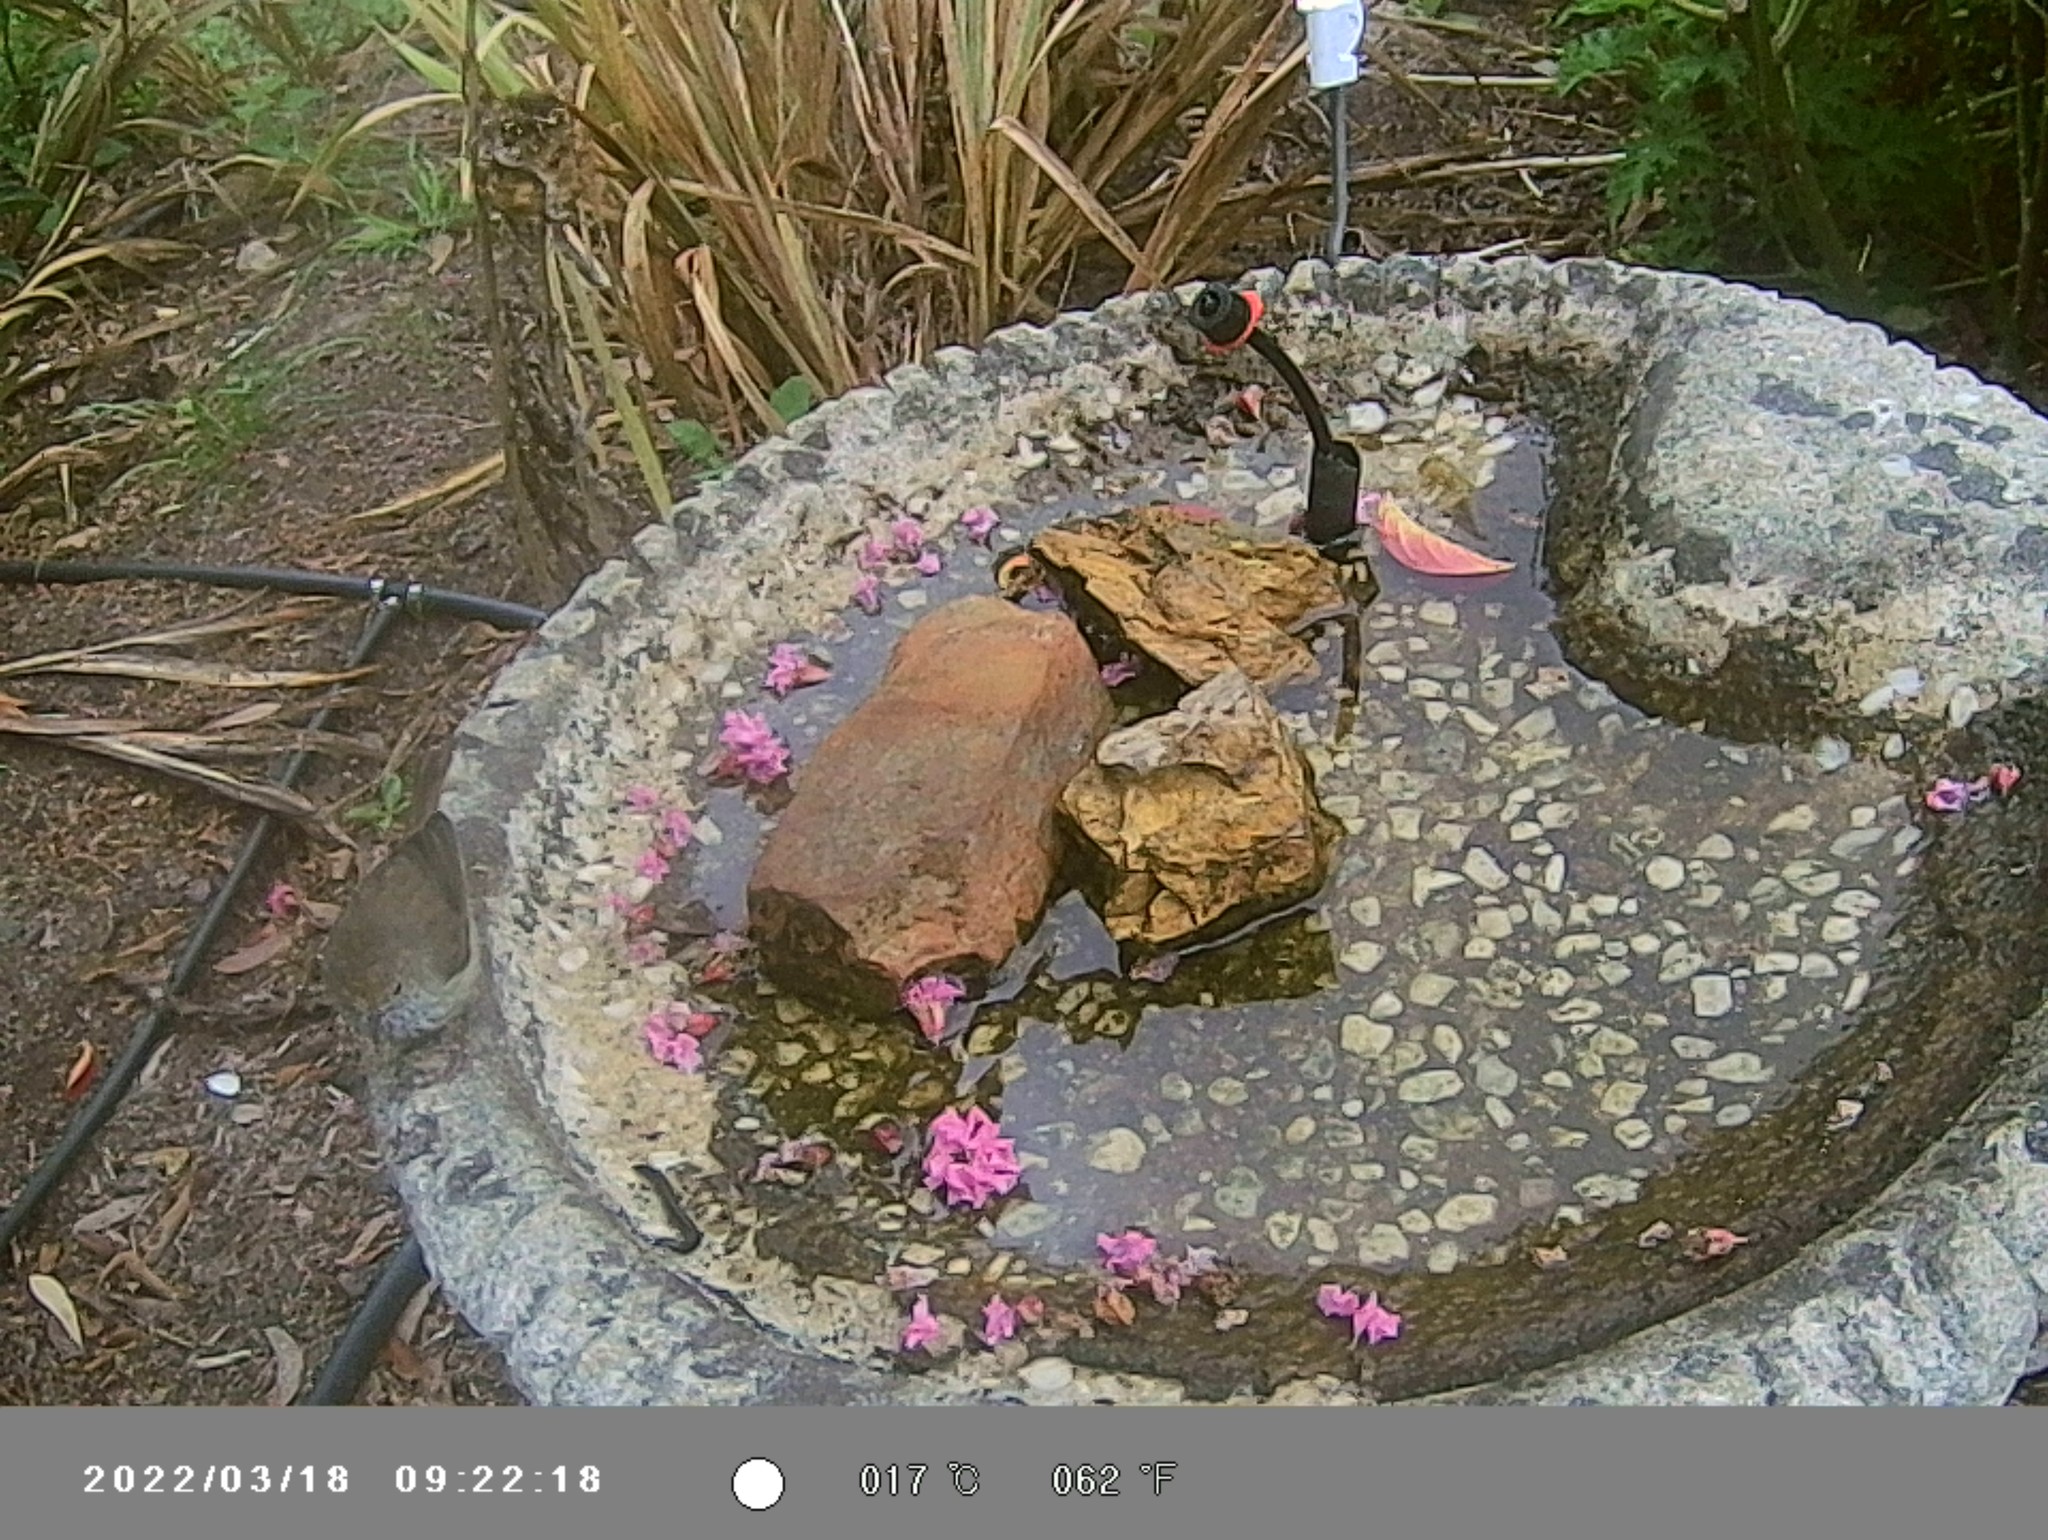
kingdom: Animalia
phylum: Chordata
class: Aves
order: Passeriformes
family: Acanthizidae
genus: Acanthiza
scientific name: Acanthiza pusilla
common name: Brown thornbill
